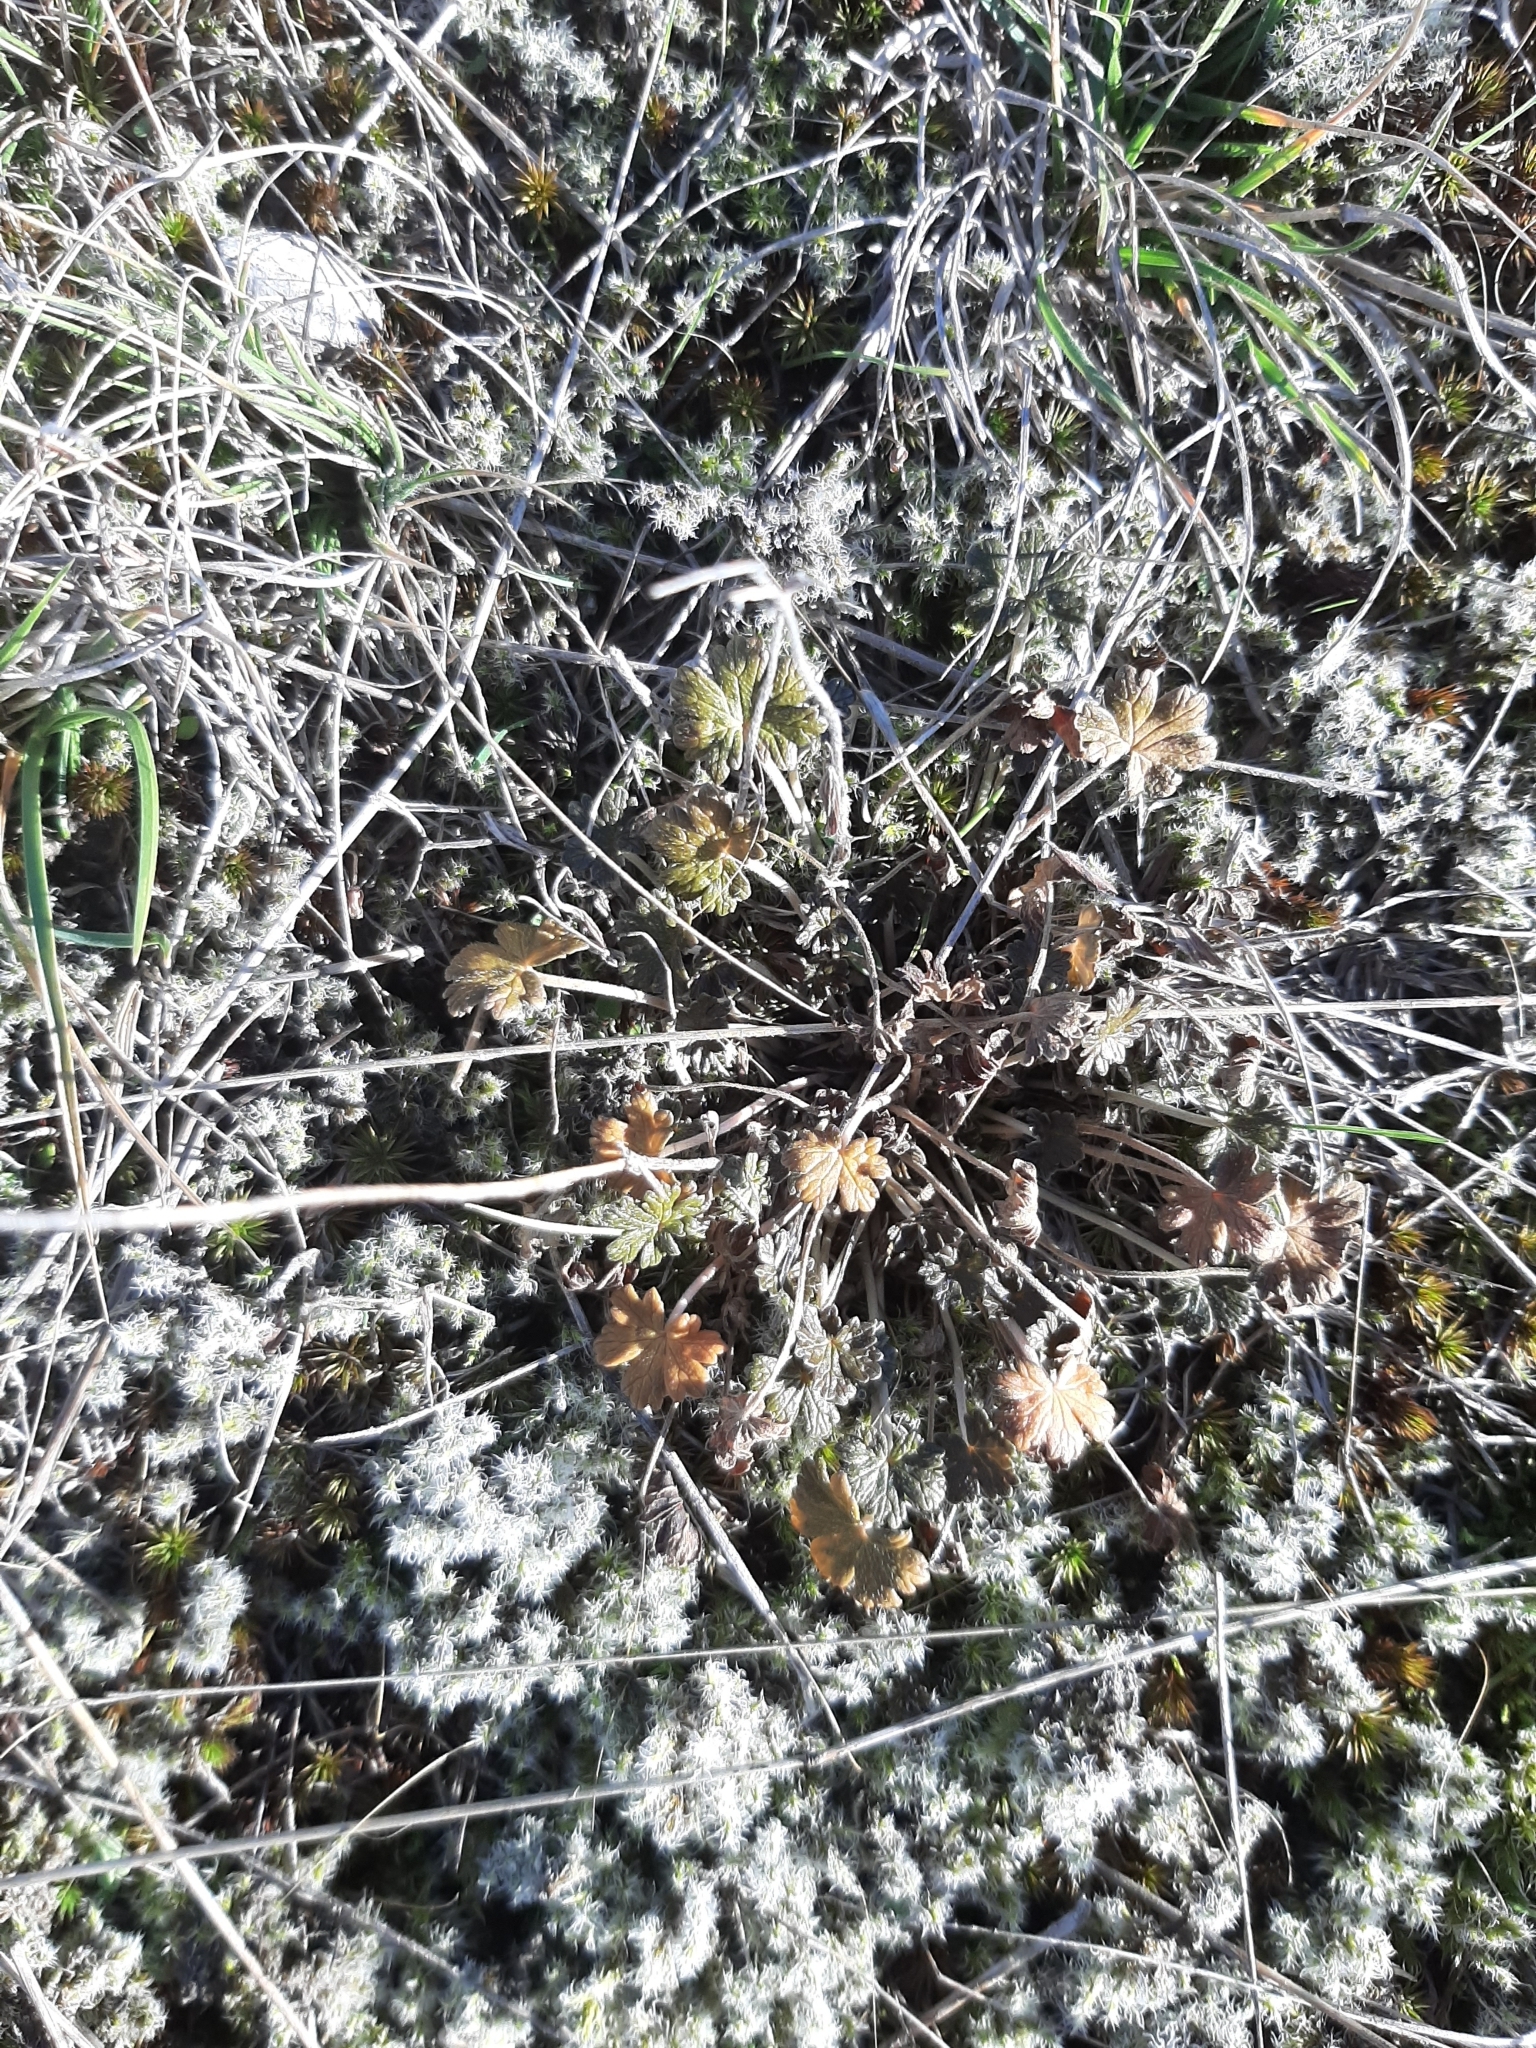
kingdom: Plantae
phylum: Tracheophyta
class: Magnoliopsida
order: Geraniales
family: Geraniaceae
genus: Geranium
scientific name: Geranium brevicaule
